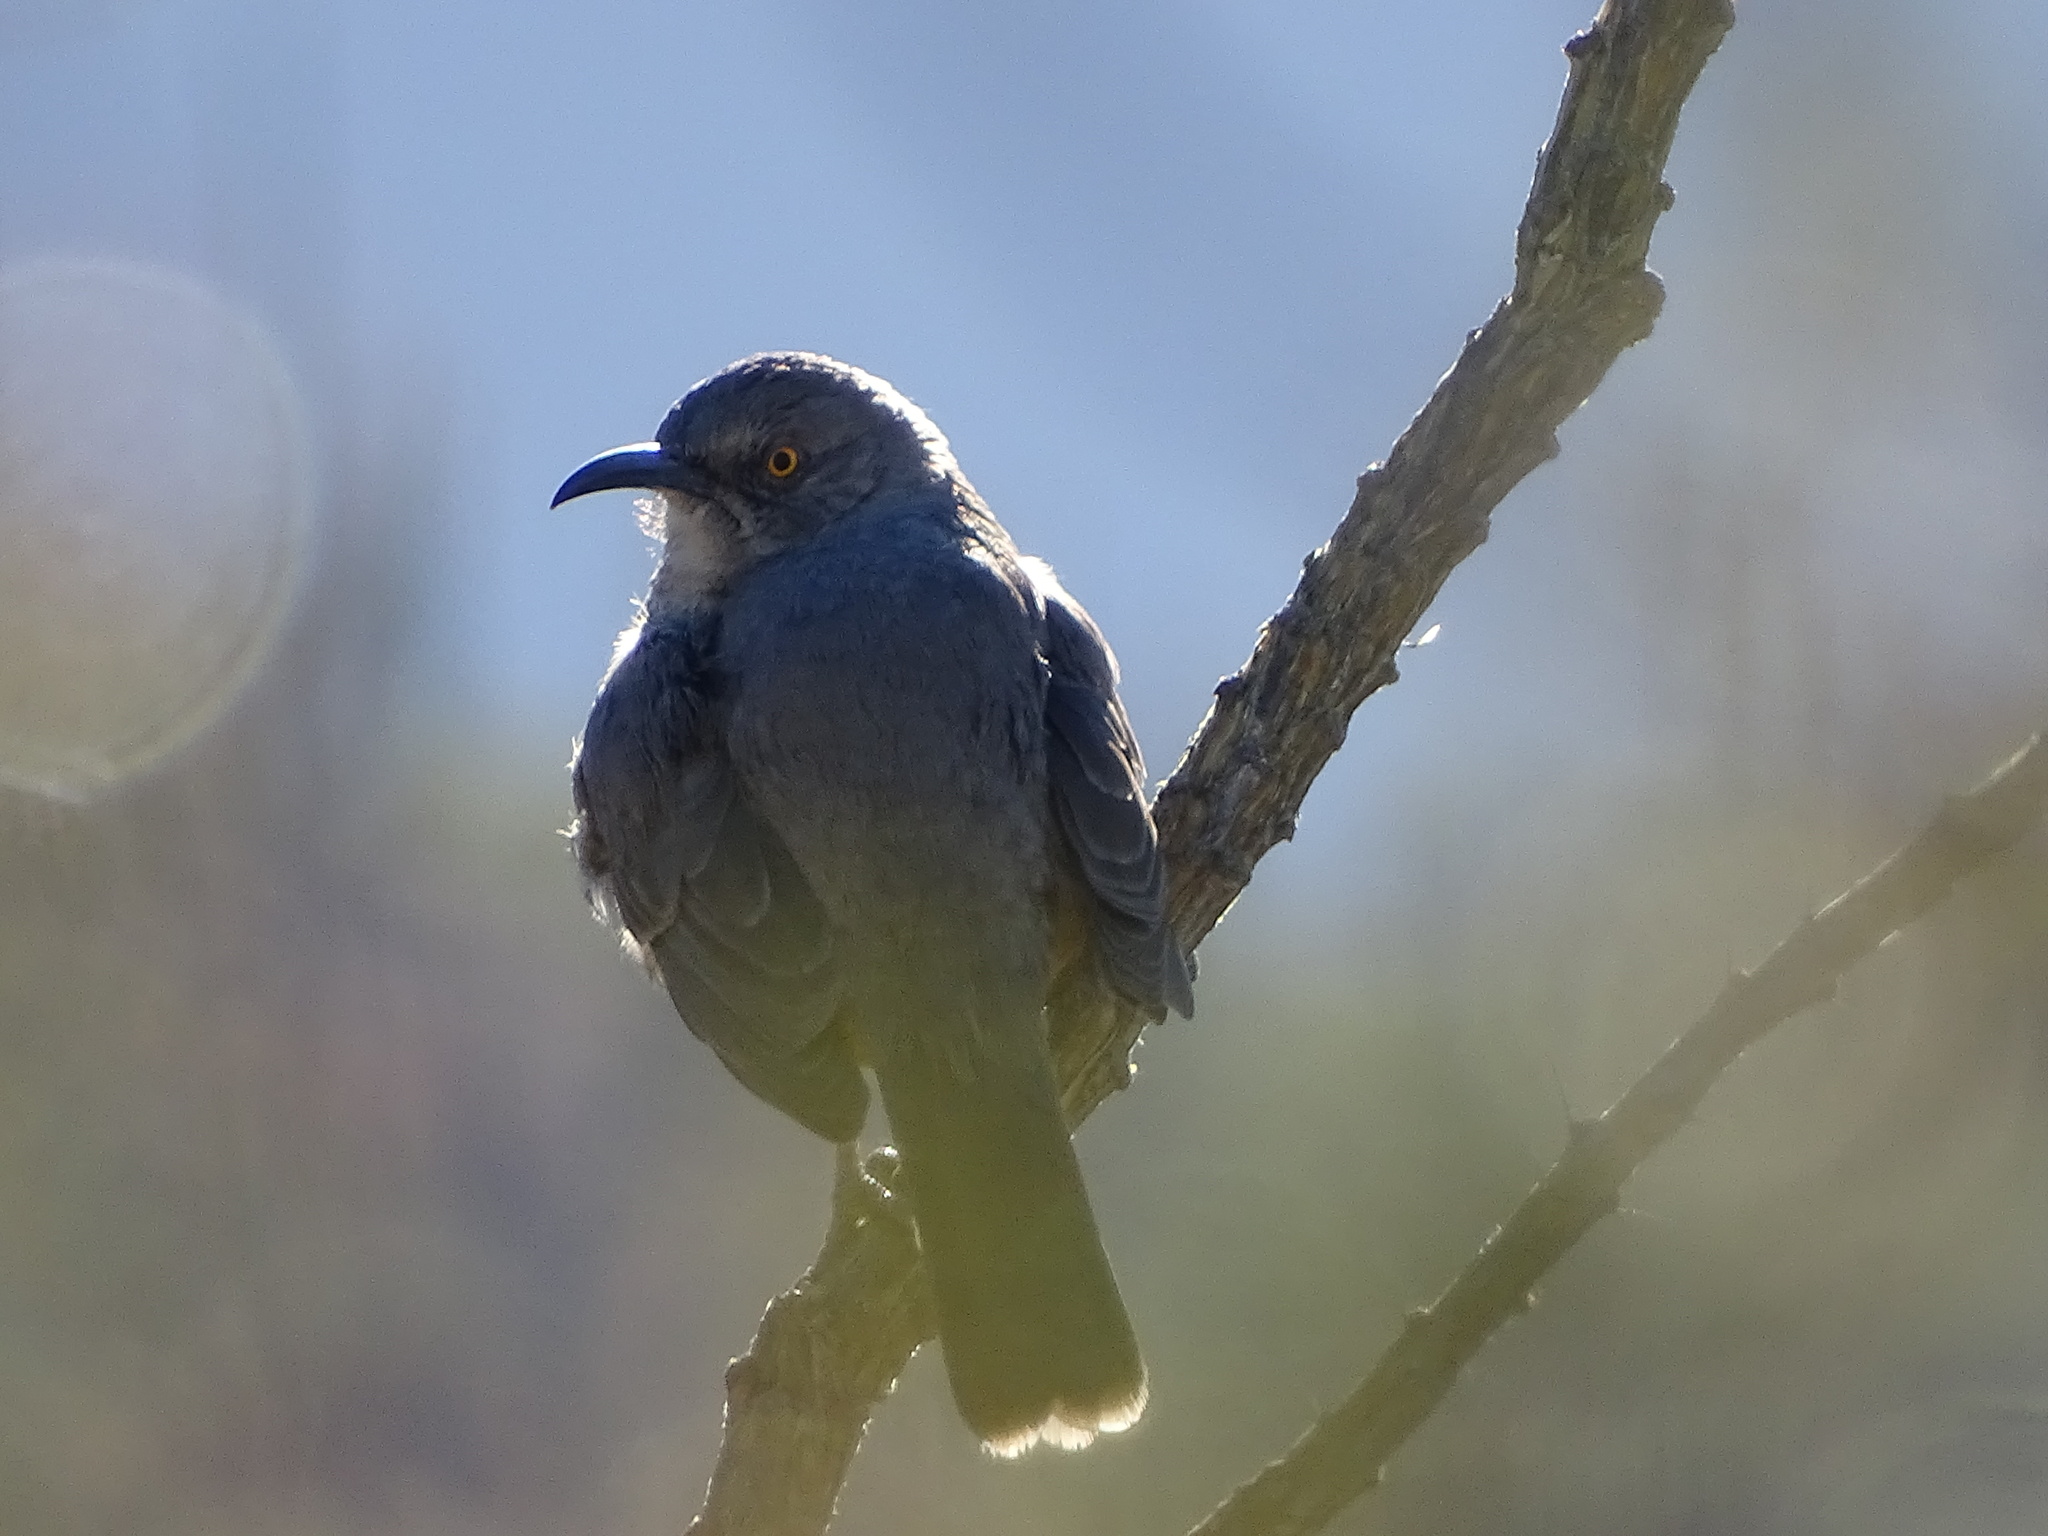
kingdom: Animalia
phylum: Chordata
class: Aves
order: Passeriformes
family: Mimidae
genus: Toxostoma
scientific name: Toxostoma curvirostre
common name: Curve-billed thrasher
